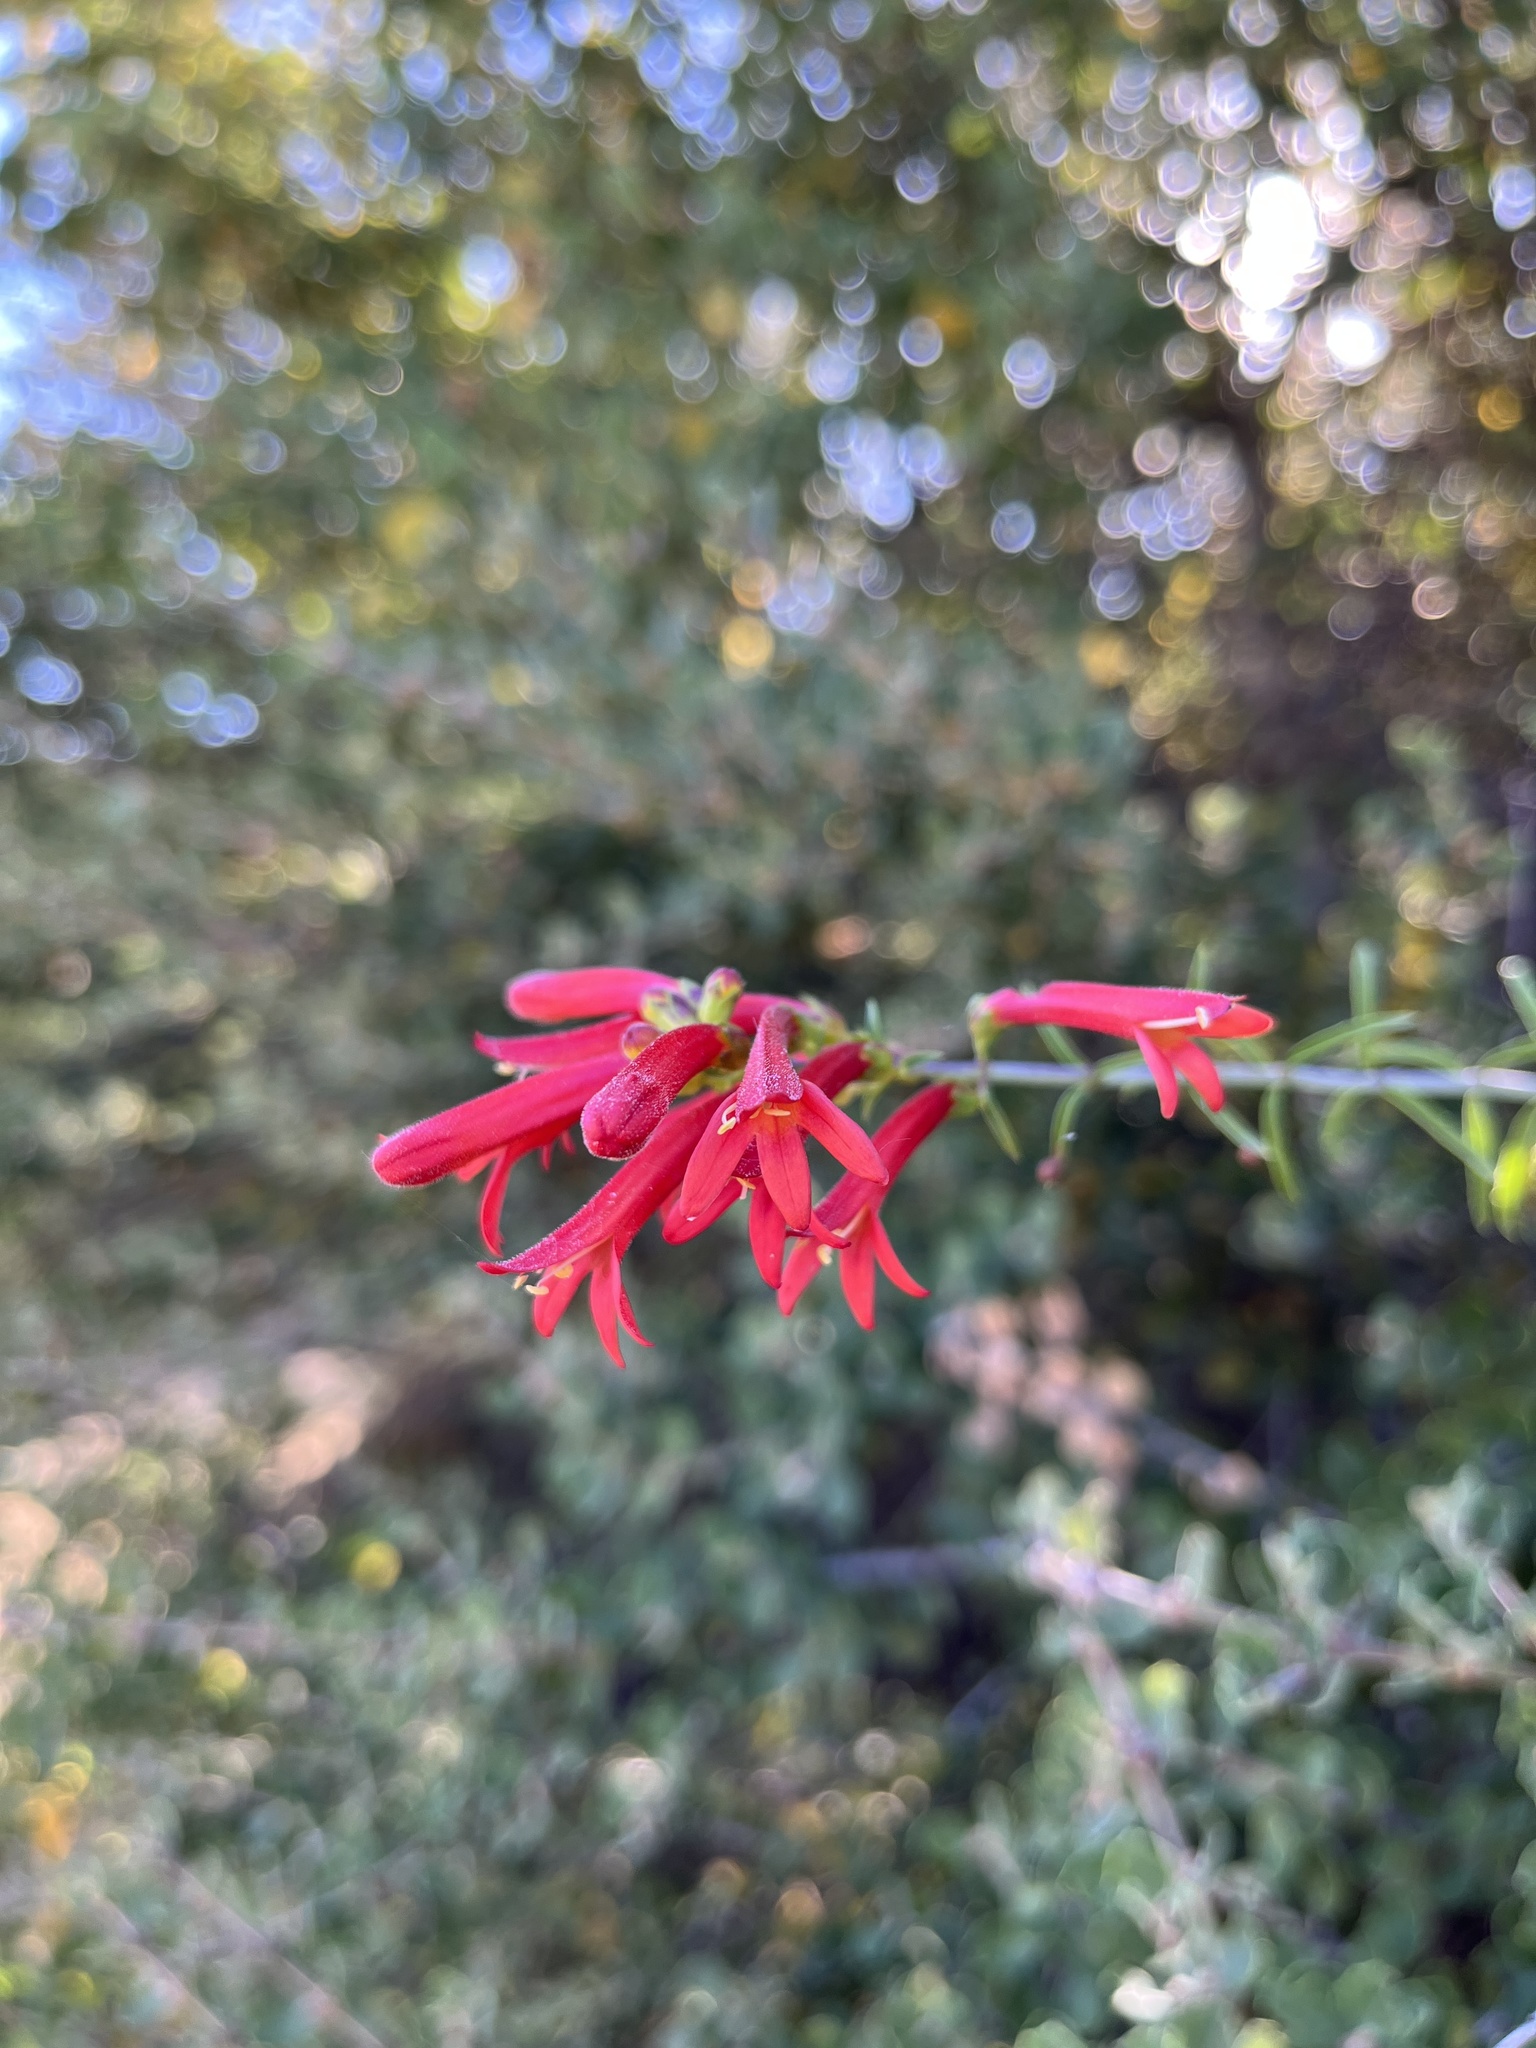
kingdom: Plantae
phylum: Tracheophyta
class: Magnoliopsida
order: Lamiales
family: Plantaginaceae
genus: Keckiella
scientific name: Keckiella ternata
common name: Scarlet keckiella
